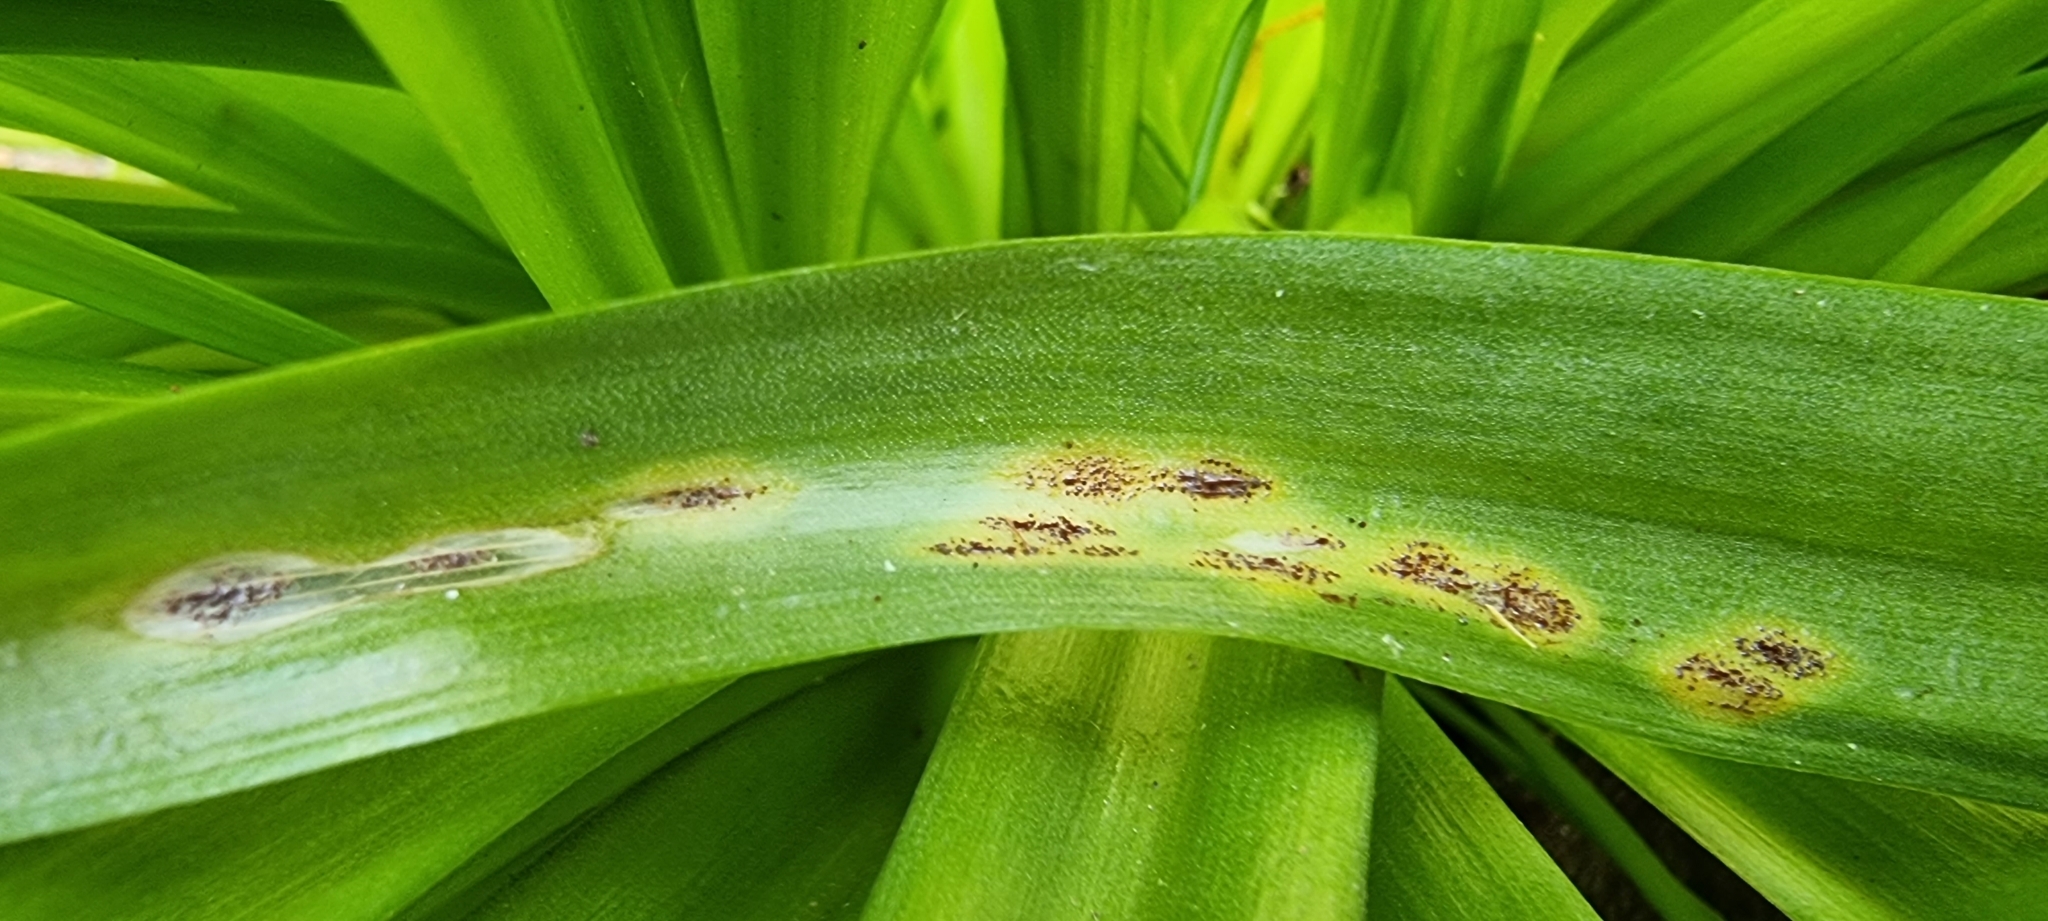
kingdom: Fungi
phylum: Basidiomycota
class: Pucciniomycetes
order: Pucciniales
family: Pucciniaceae
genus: Uromyces
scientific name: Uromyces hyacinthi
